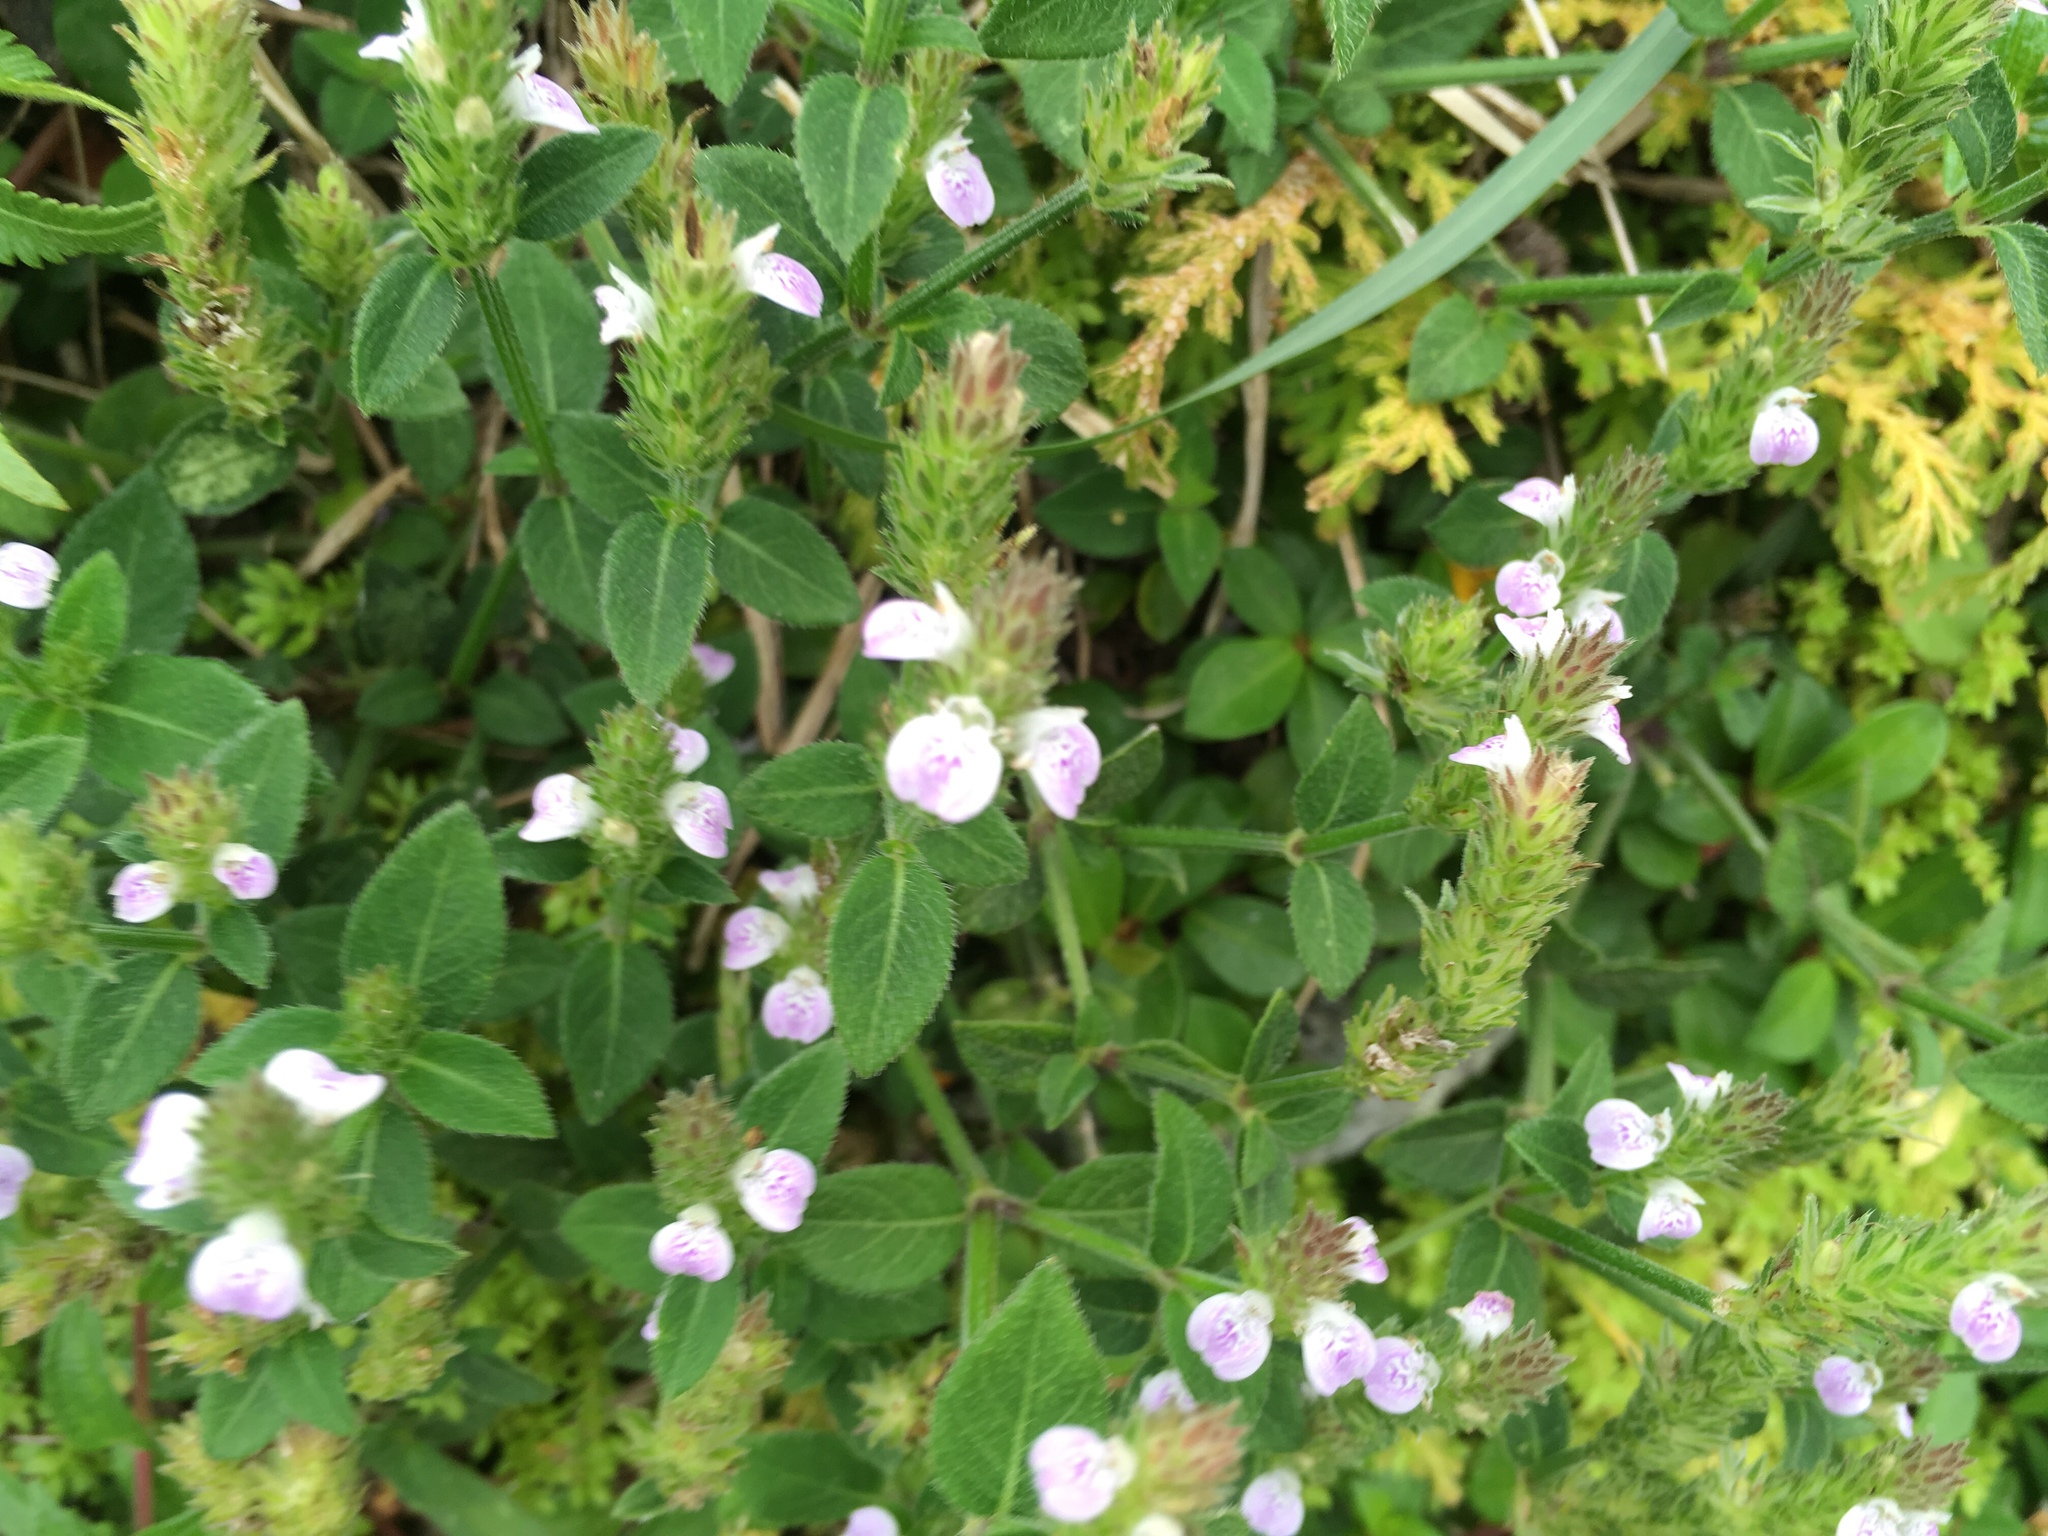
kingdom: Plantae
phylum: Tracheophyta
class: Magnoliopsida
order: Lamiales
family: Acanthaceae
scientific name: Acanthaceae
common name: Acanthaceae
